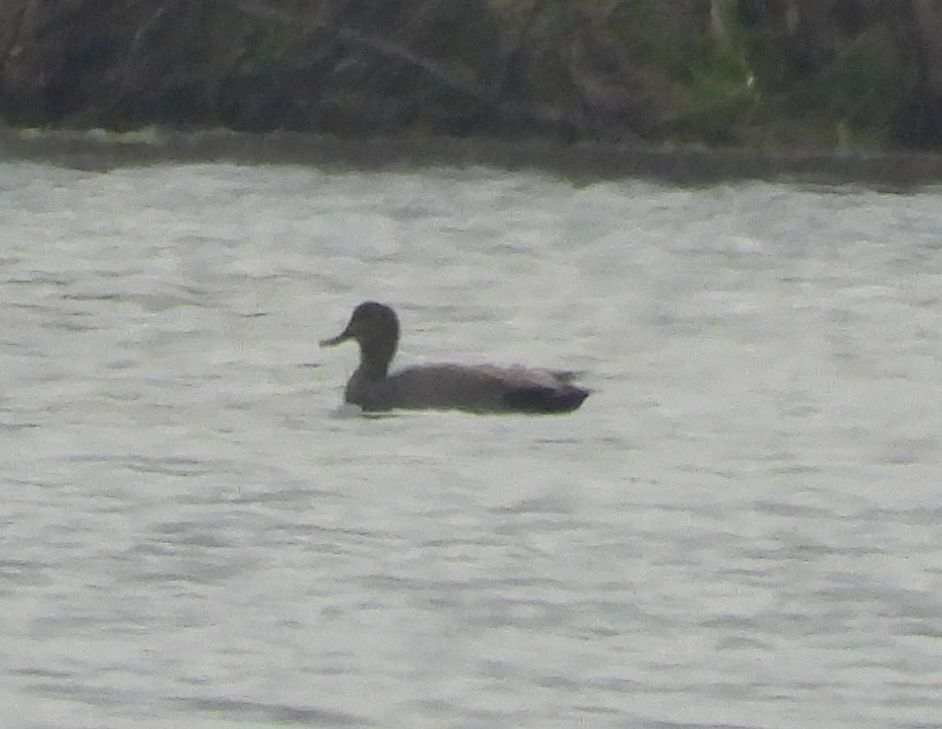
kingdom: Animalia
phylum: Chordata
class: Aves
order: Anseriformes
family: Anatidae
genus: Mareca
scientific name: Mareca strepera
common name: Gadwall
